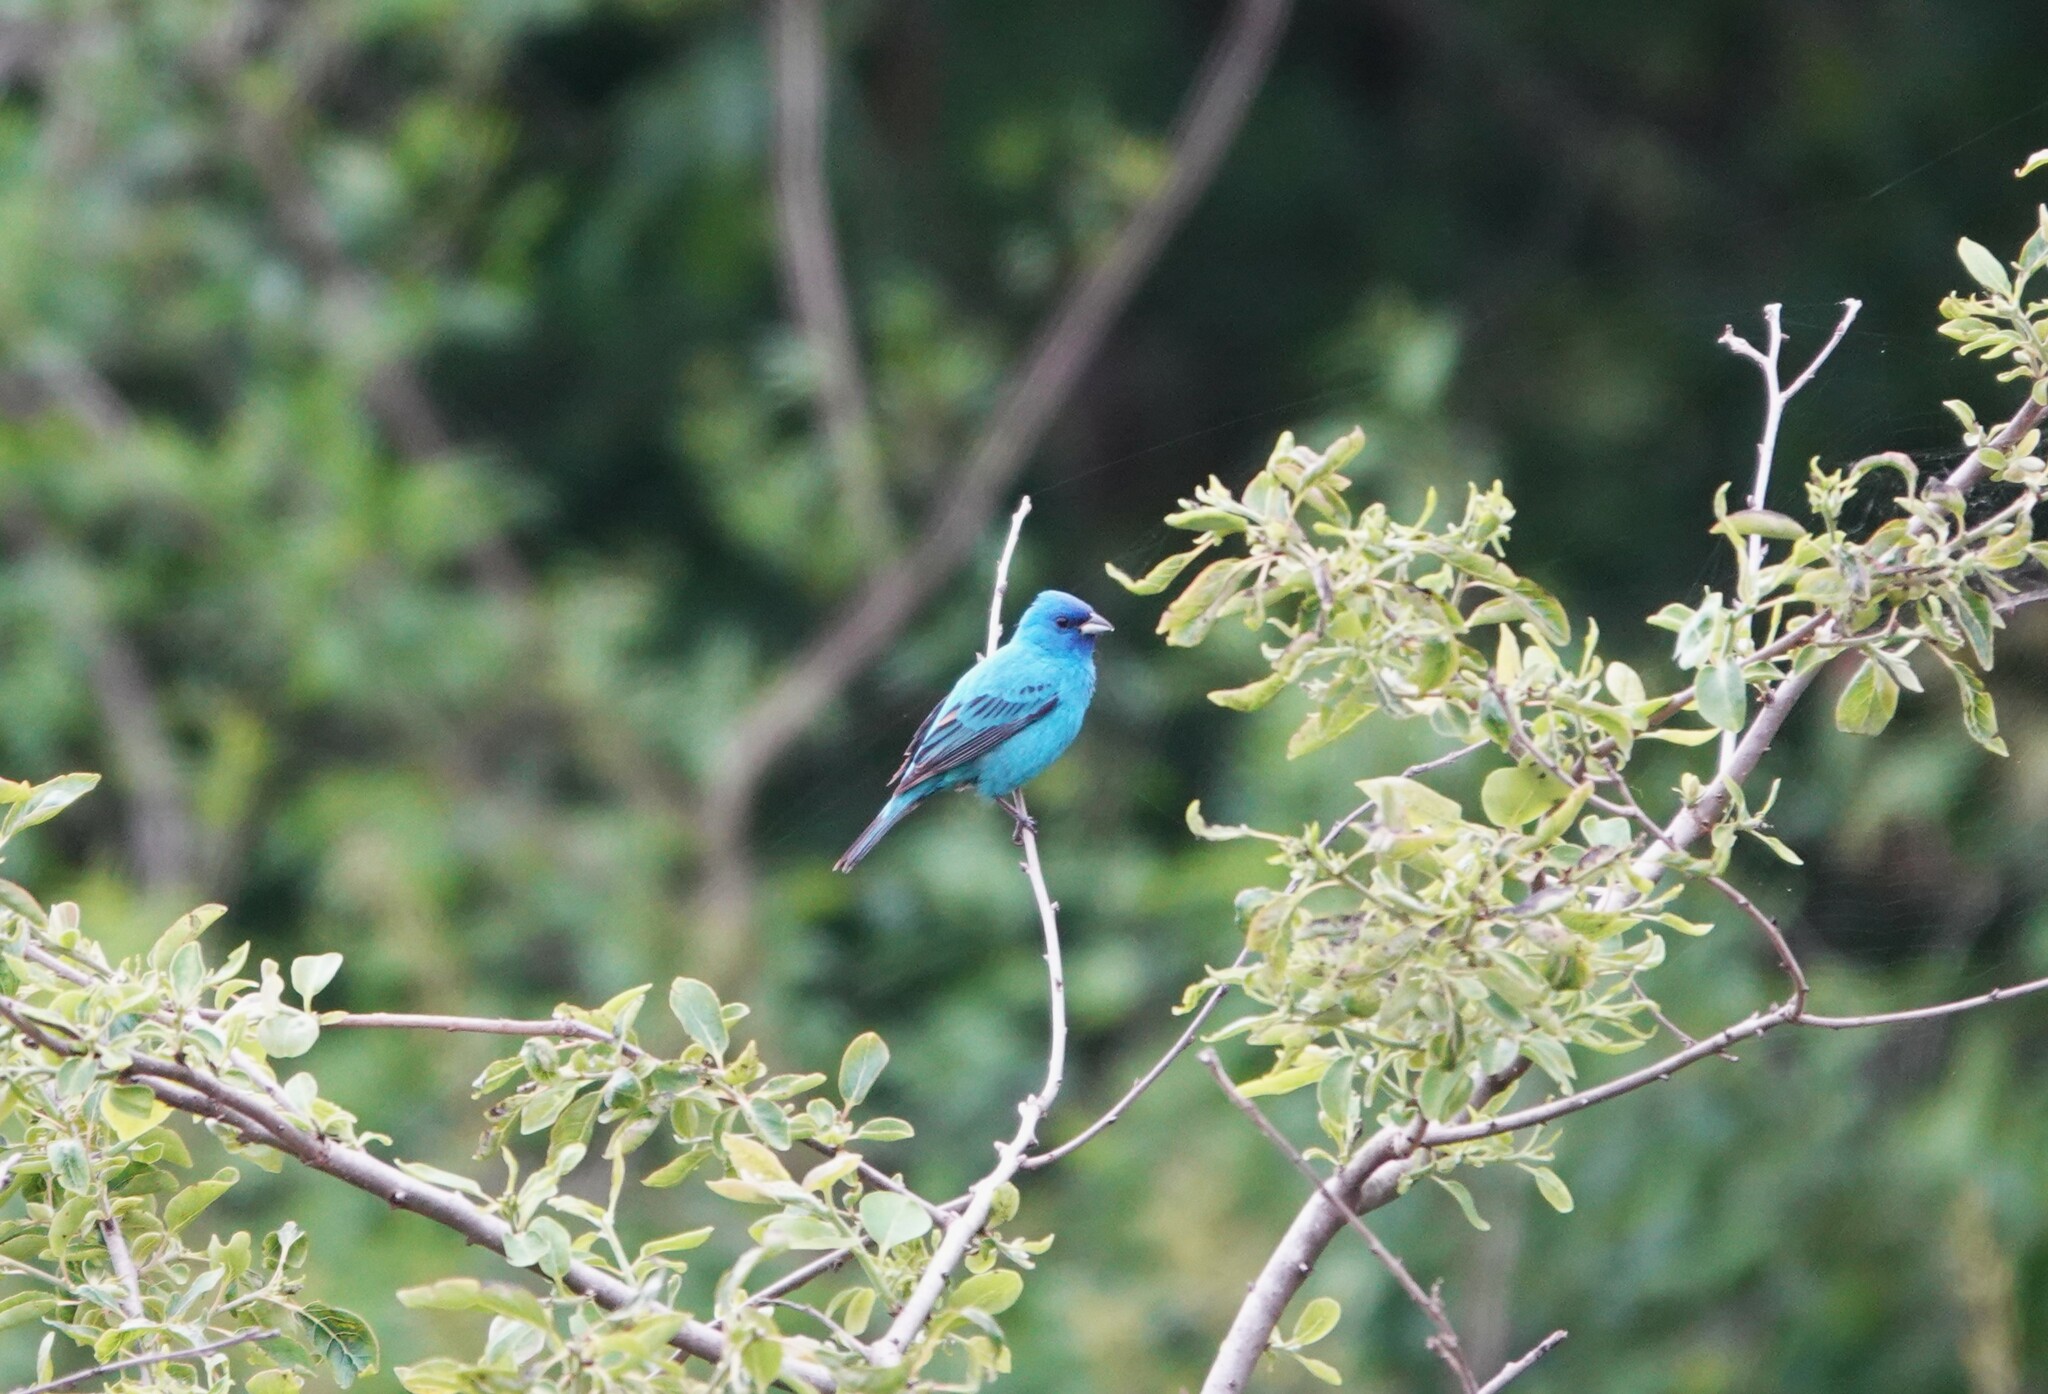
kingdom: Animalia
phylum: Chordata
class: Aves
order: Passeriformes
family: Cardinalidae
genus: Passerina
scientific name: Passerina cyanea
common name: Indigo bunting
